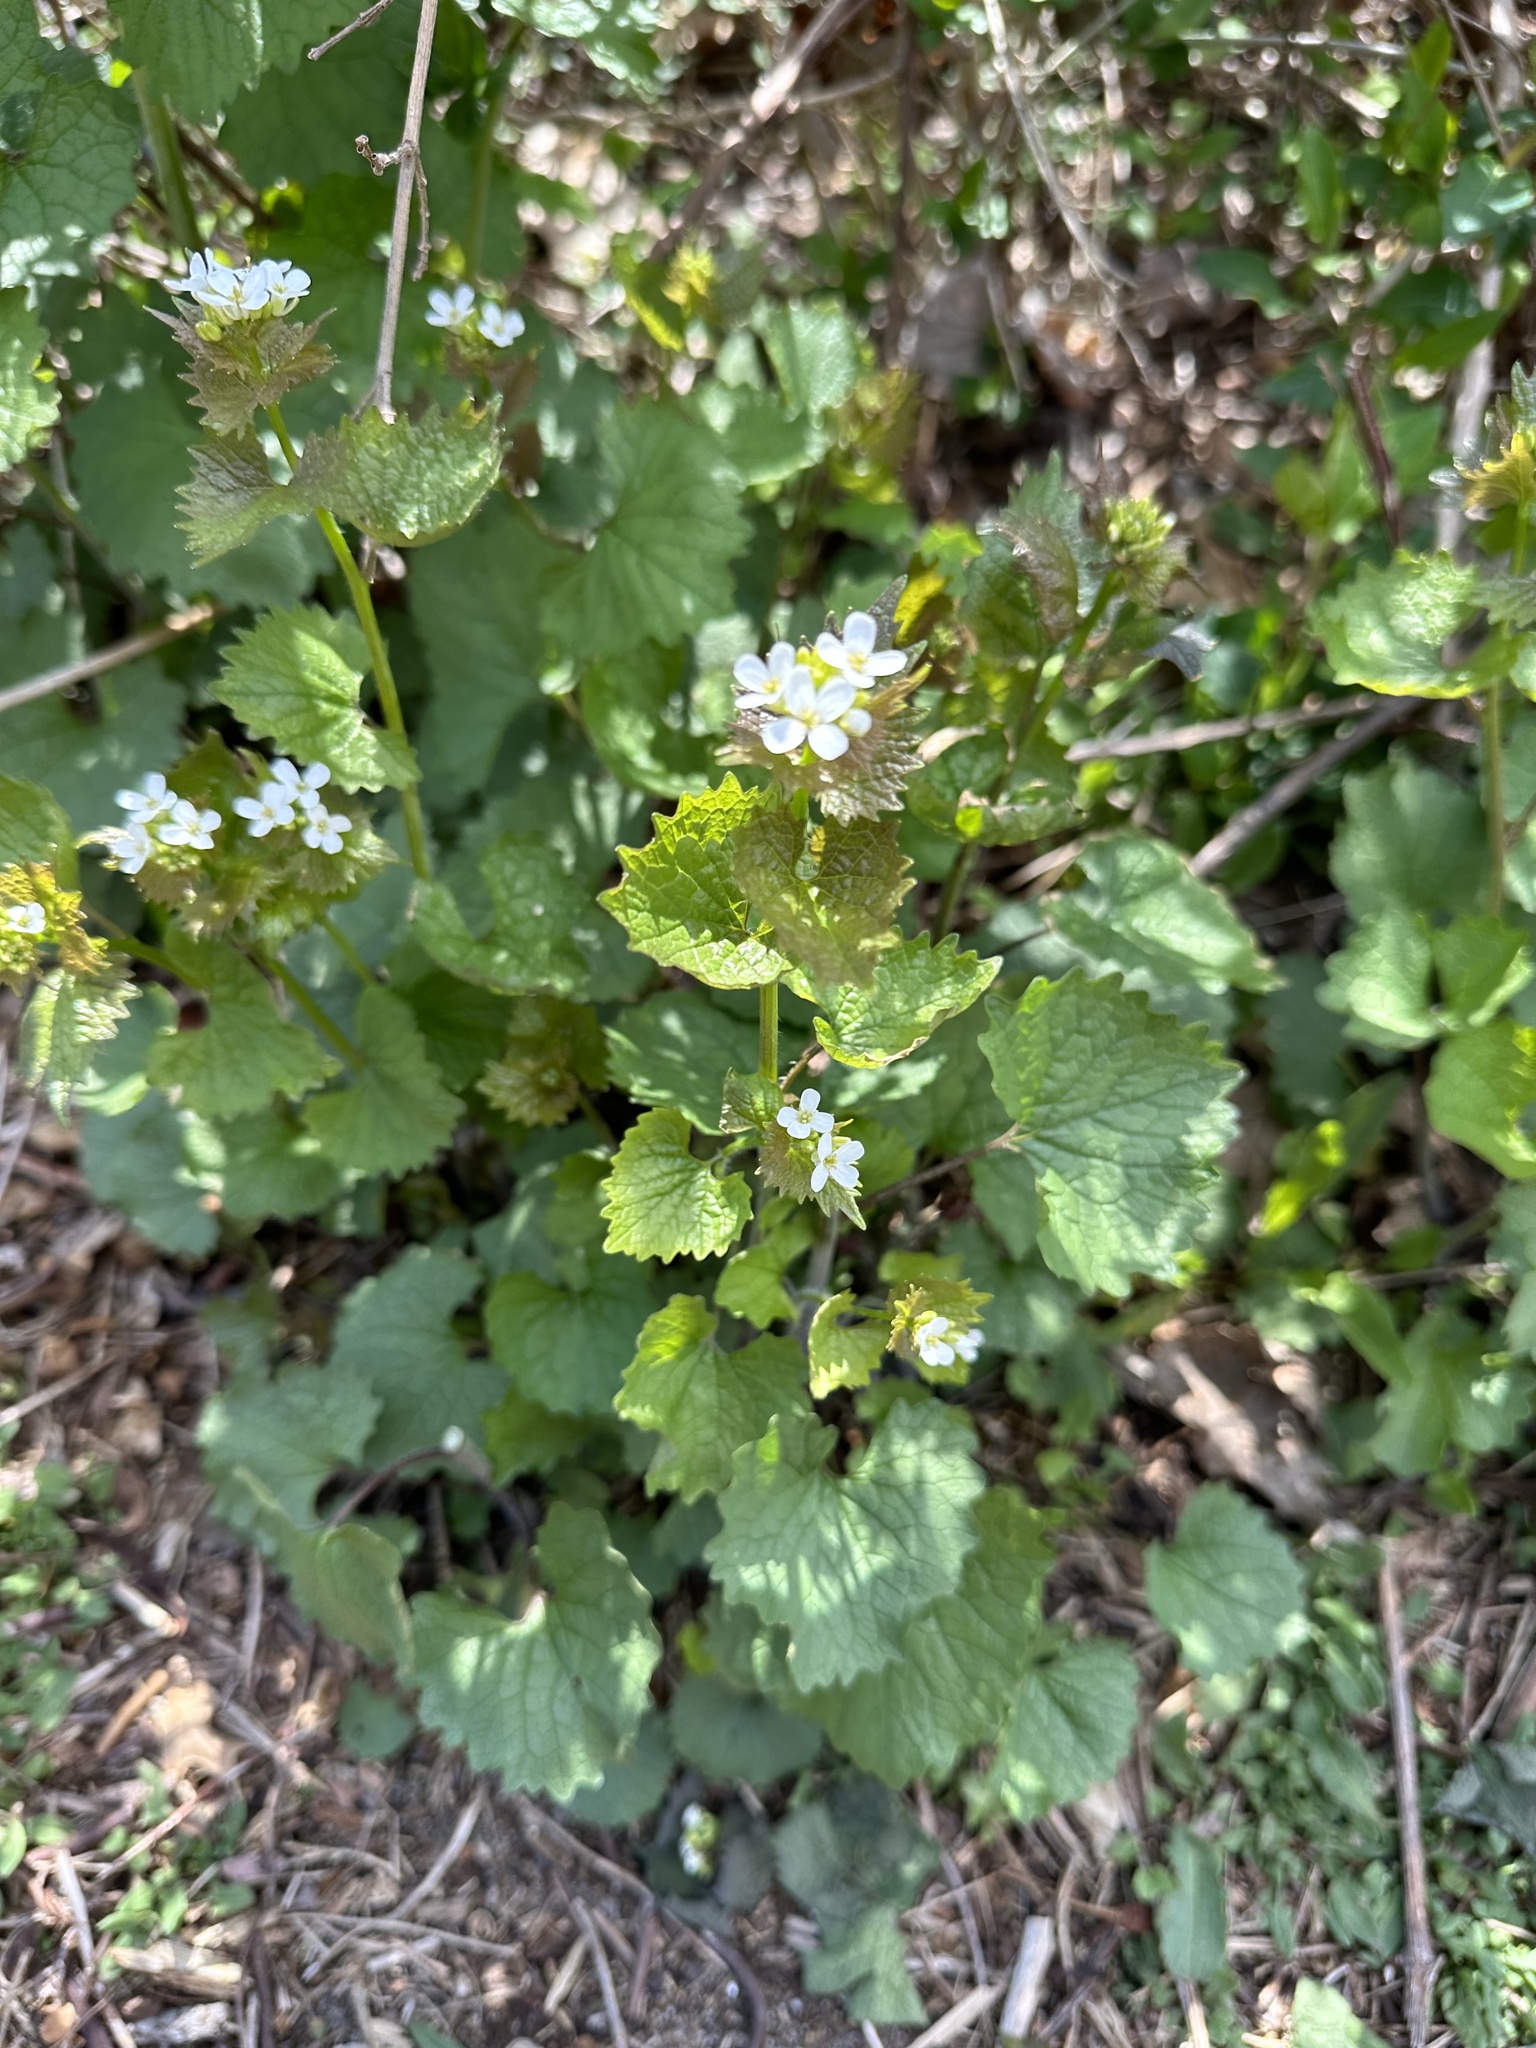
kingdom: Plantae
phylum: Tracheophyta
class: Magnoliopsida
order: Brassicales
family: Brassicaceae
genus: Alliaria
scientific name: Alliaria petiolata
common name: Garlic mustard
